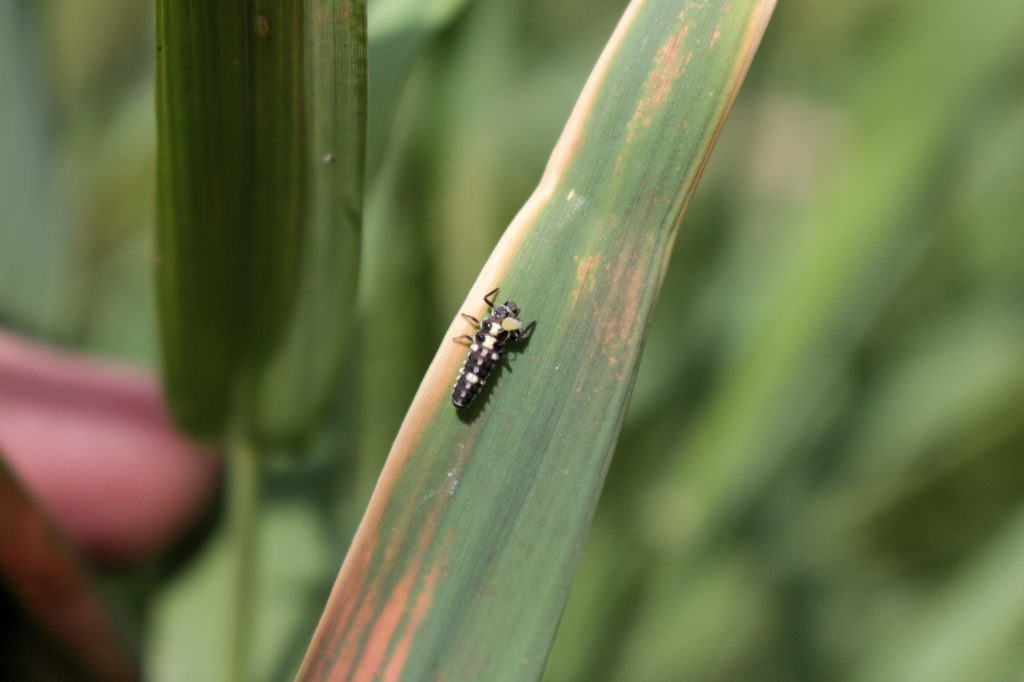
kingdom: Animalia
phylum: Arthropoda
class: Insecta
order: Coleoptera
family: Coccinellidae
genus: Propylaea
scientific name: Propylaea quatuordecimpunctata
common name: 14-spotted ladybird beetle
